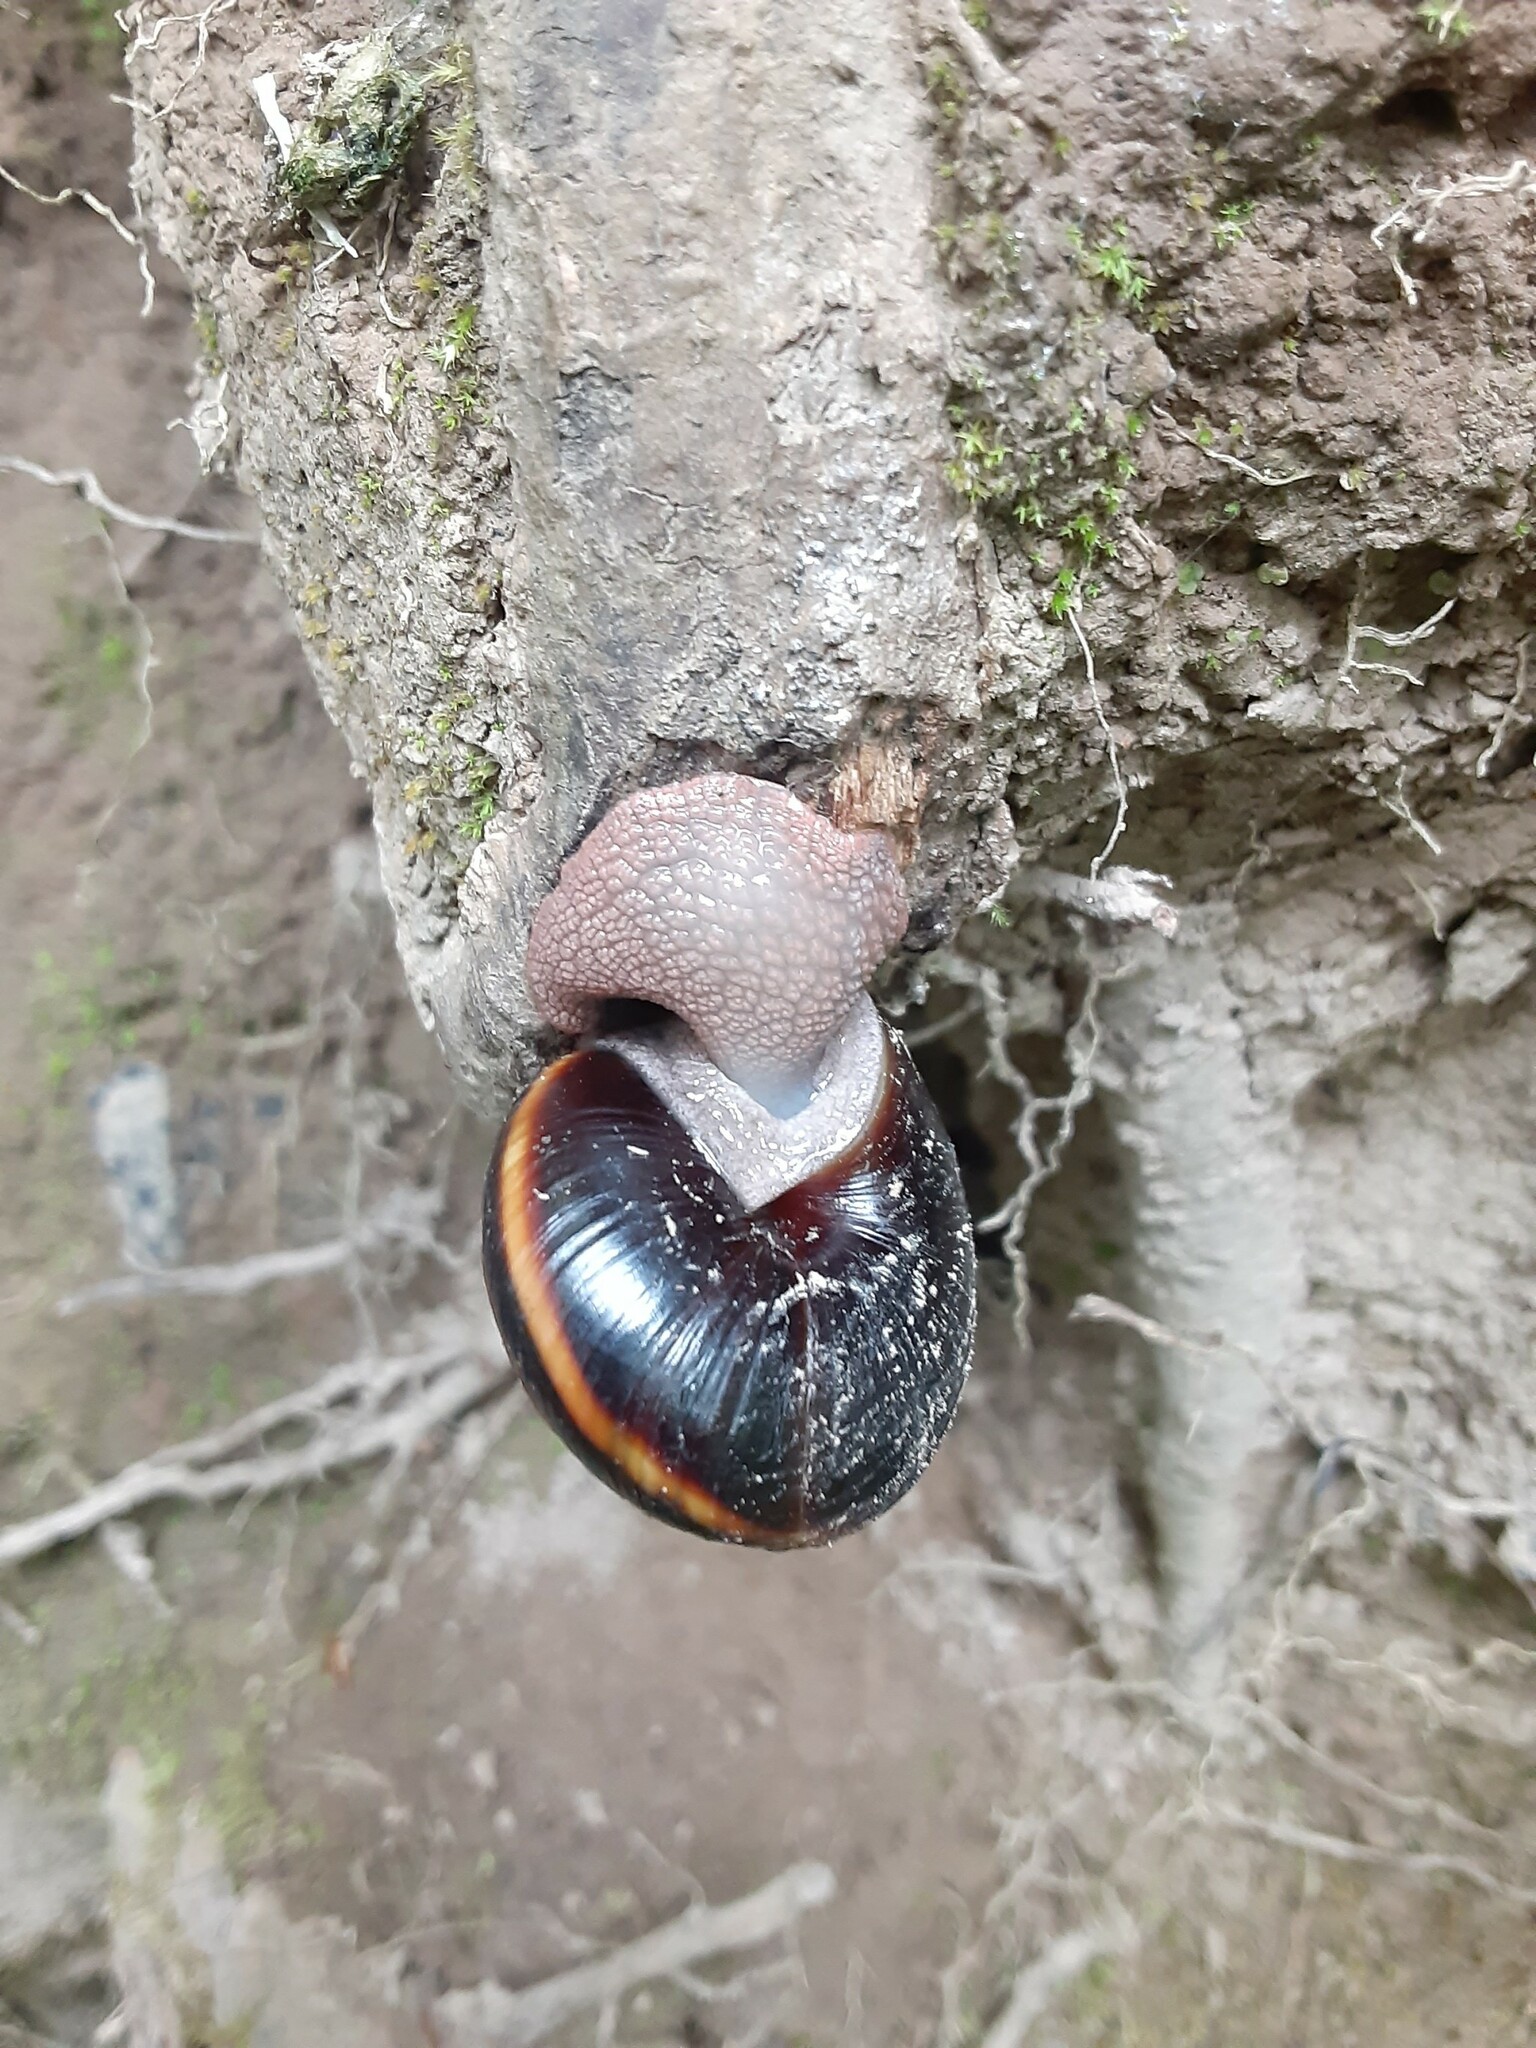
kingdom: Animalia
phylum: Mollusca
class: Gastropoda
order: Stylommatophora
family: Xanthonychidae
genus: Monadenia
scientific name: Monadenia fidelis
